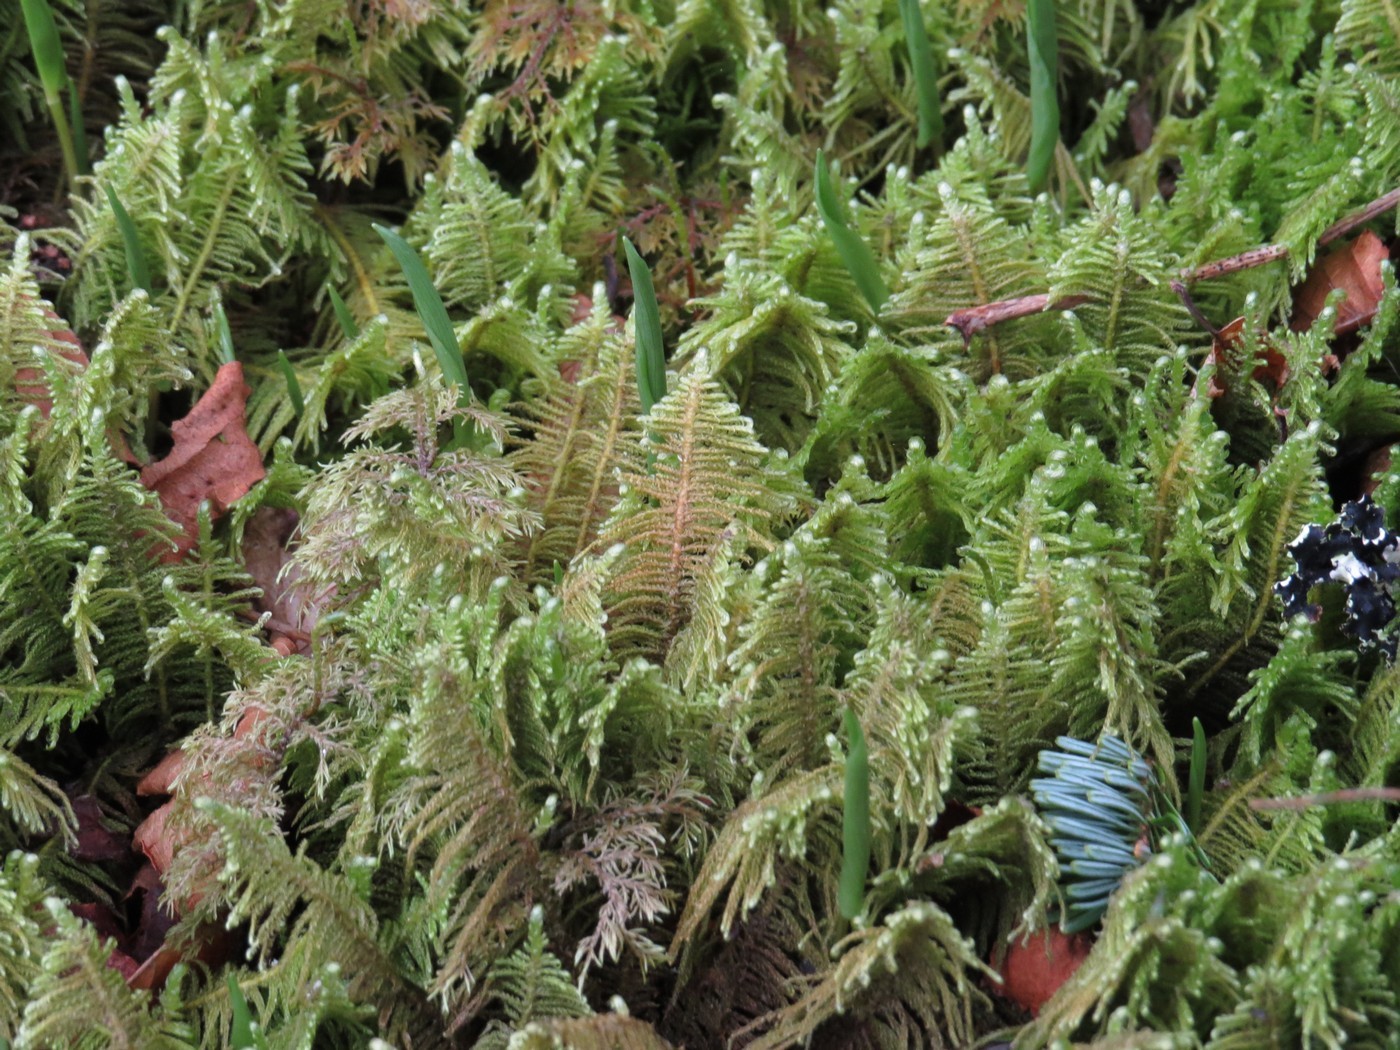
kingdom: Plantae
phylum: Bryophyta
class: Bryopsida
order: Hypnales
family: Pylaisiaceae
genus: Ptilium
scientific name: Ptilium crista-castrensis
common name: Knight's plume moss
